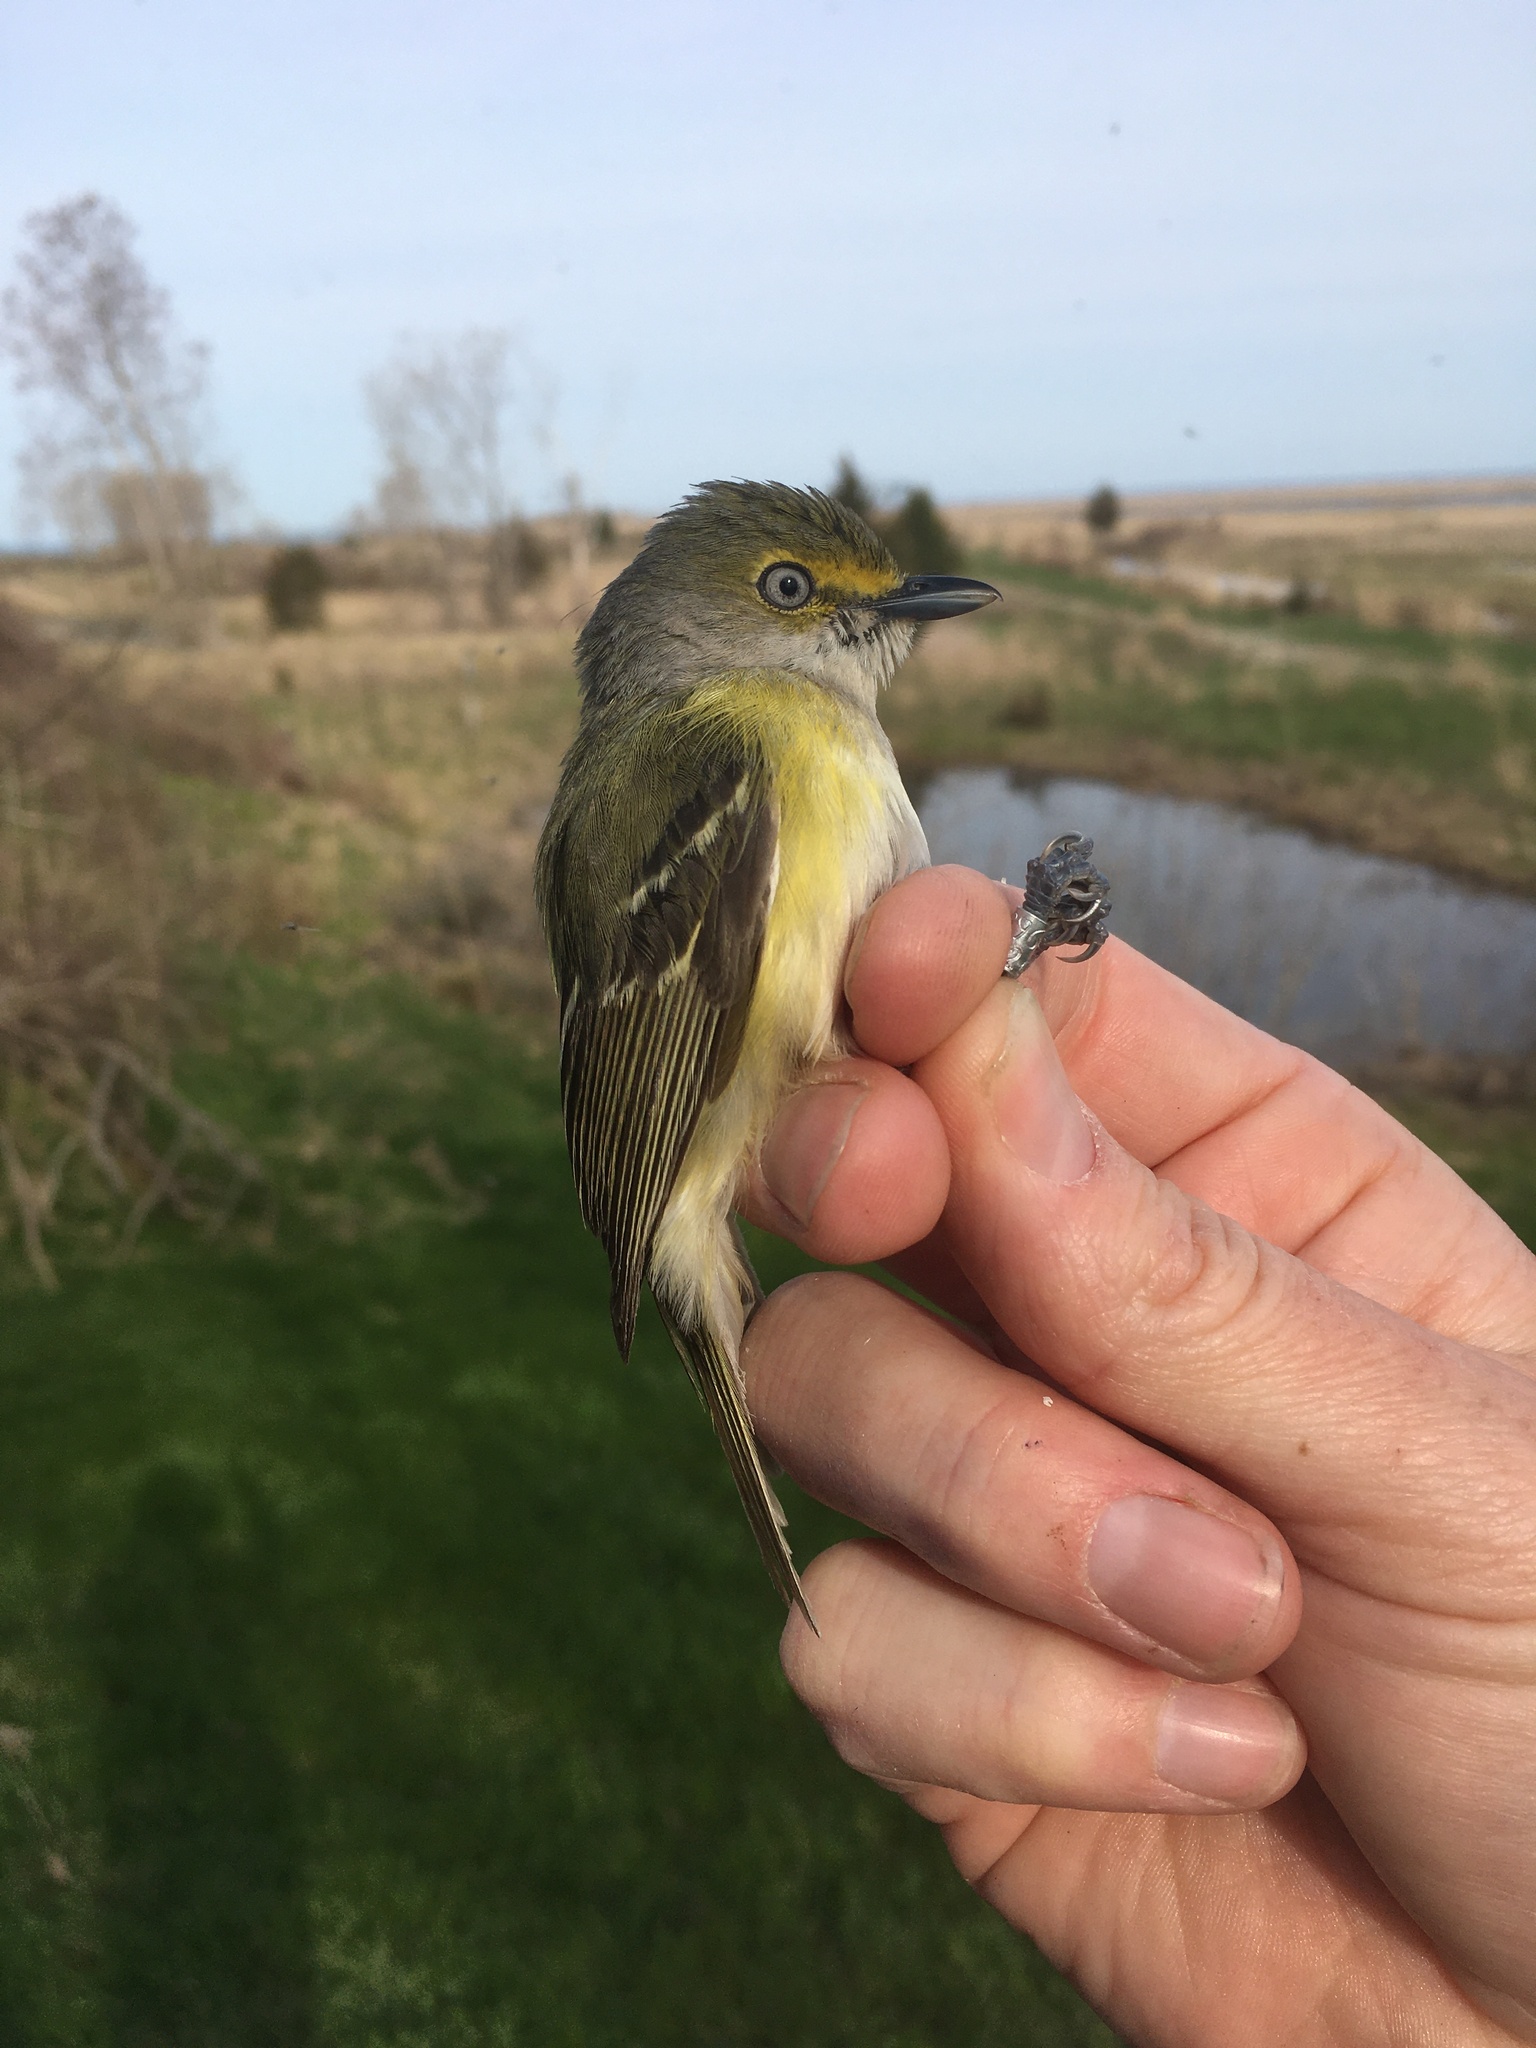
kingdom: Animalia
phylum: Chordata
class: Aves
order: Passeriformes
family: Vireonidae
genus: Vireo
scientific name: Vireo griseus
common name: White-eyed vireo
